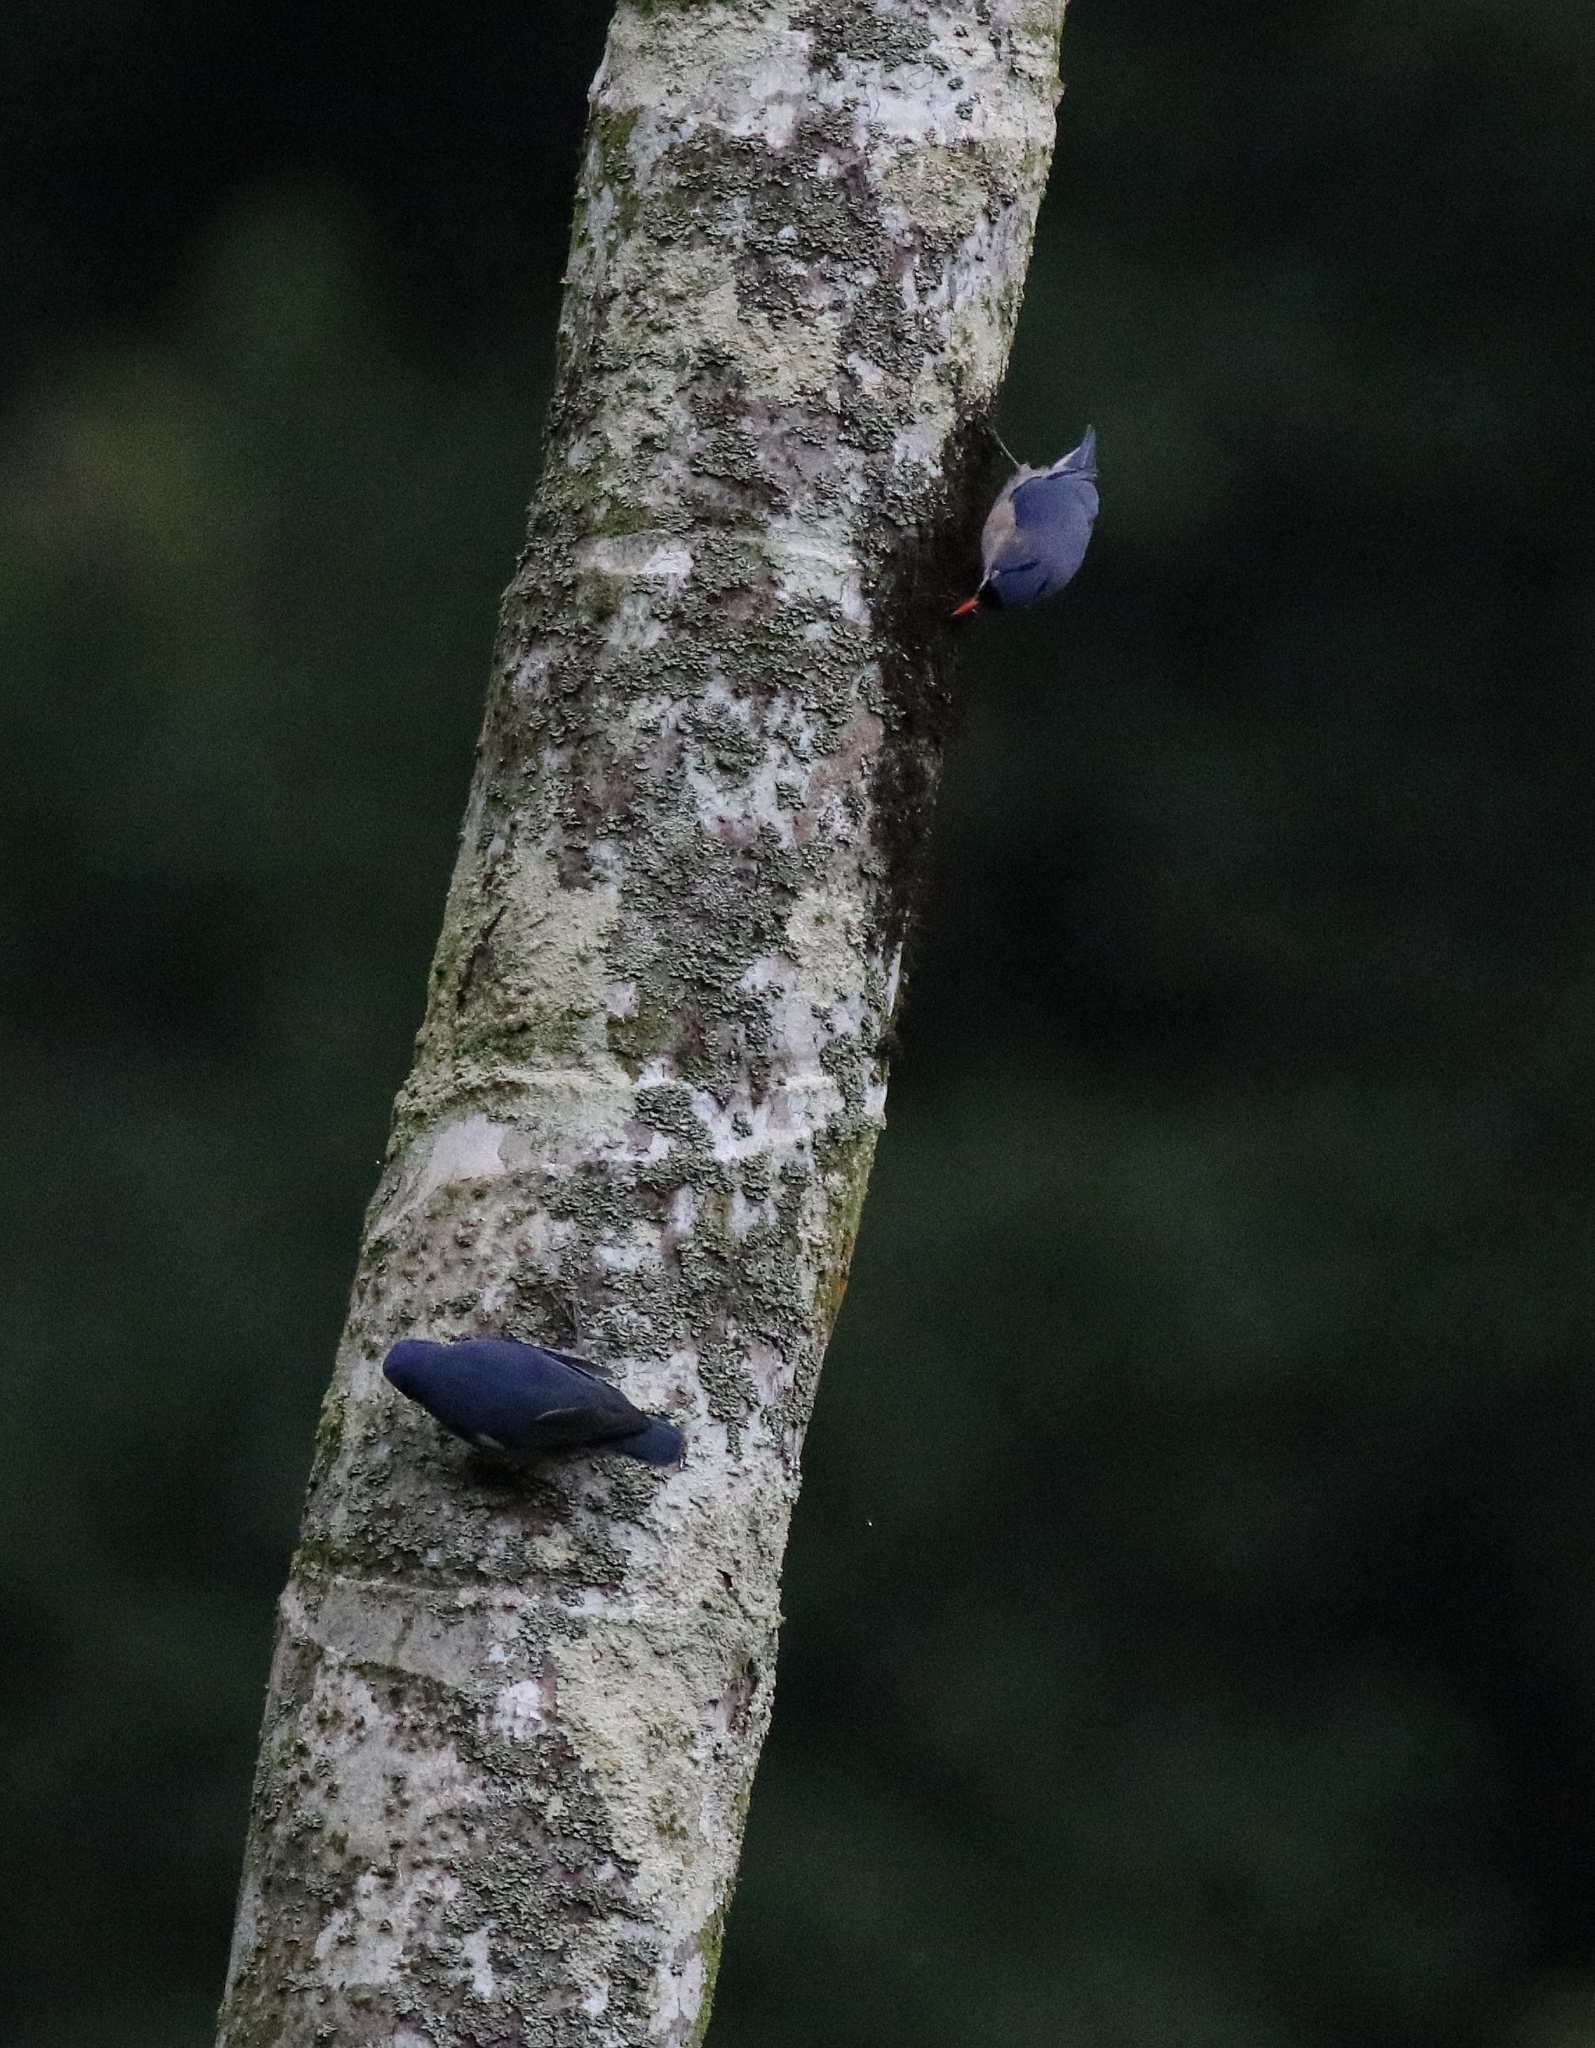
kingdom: Animalia
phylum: Chordata
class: Aves
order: Passeriformes
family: Sittidae
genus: Sitta
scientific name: Sitta frontalis
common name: Velvet-fronted nuthatch
